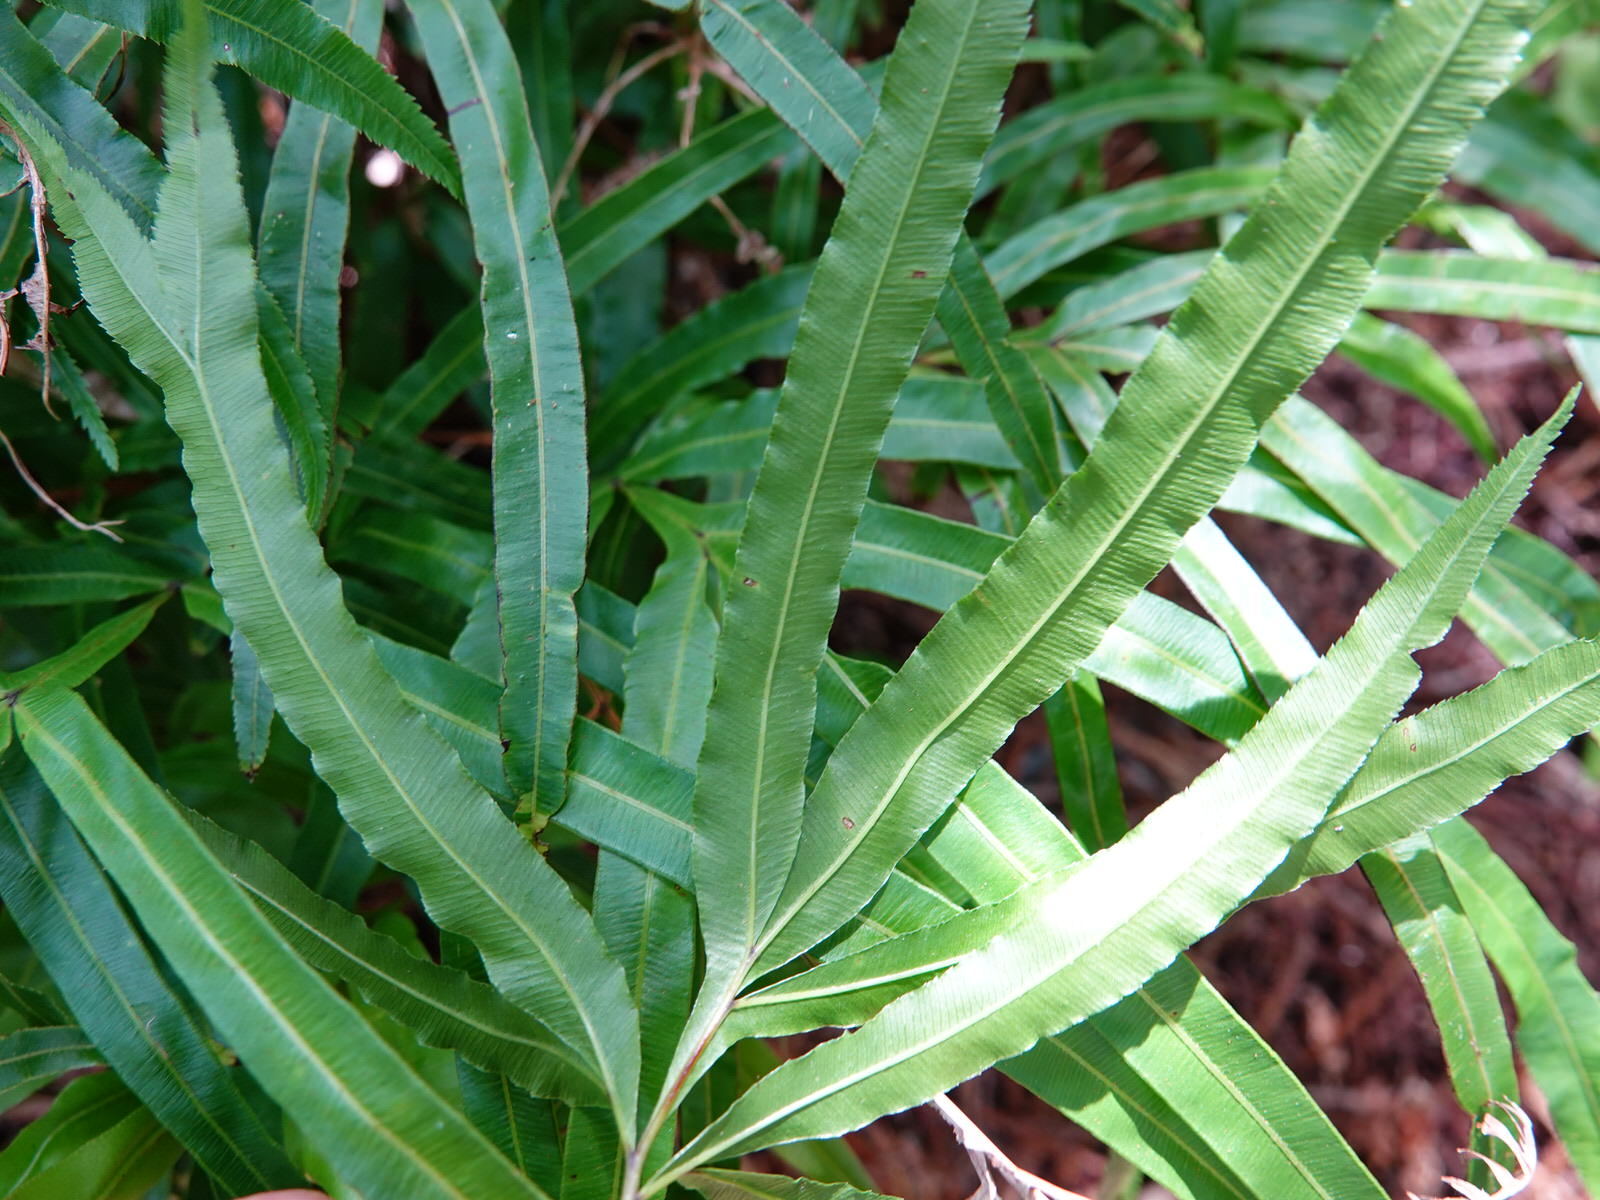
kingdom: Plantae
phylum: Tracheophyta
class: Polypodiopsida
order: Polypodiales
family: Pteridaceae
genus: Pteris
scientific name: Pteris cretica
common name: Ribbon fern
